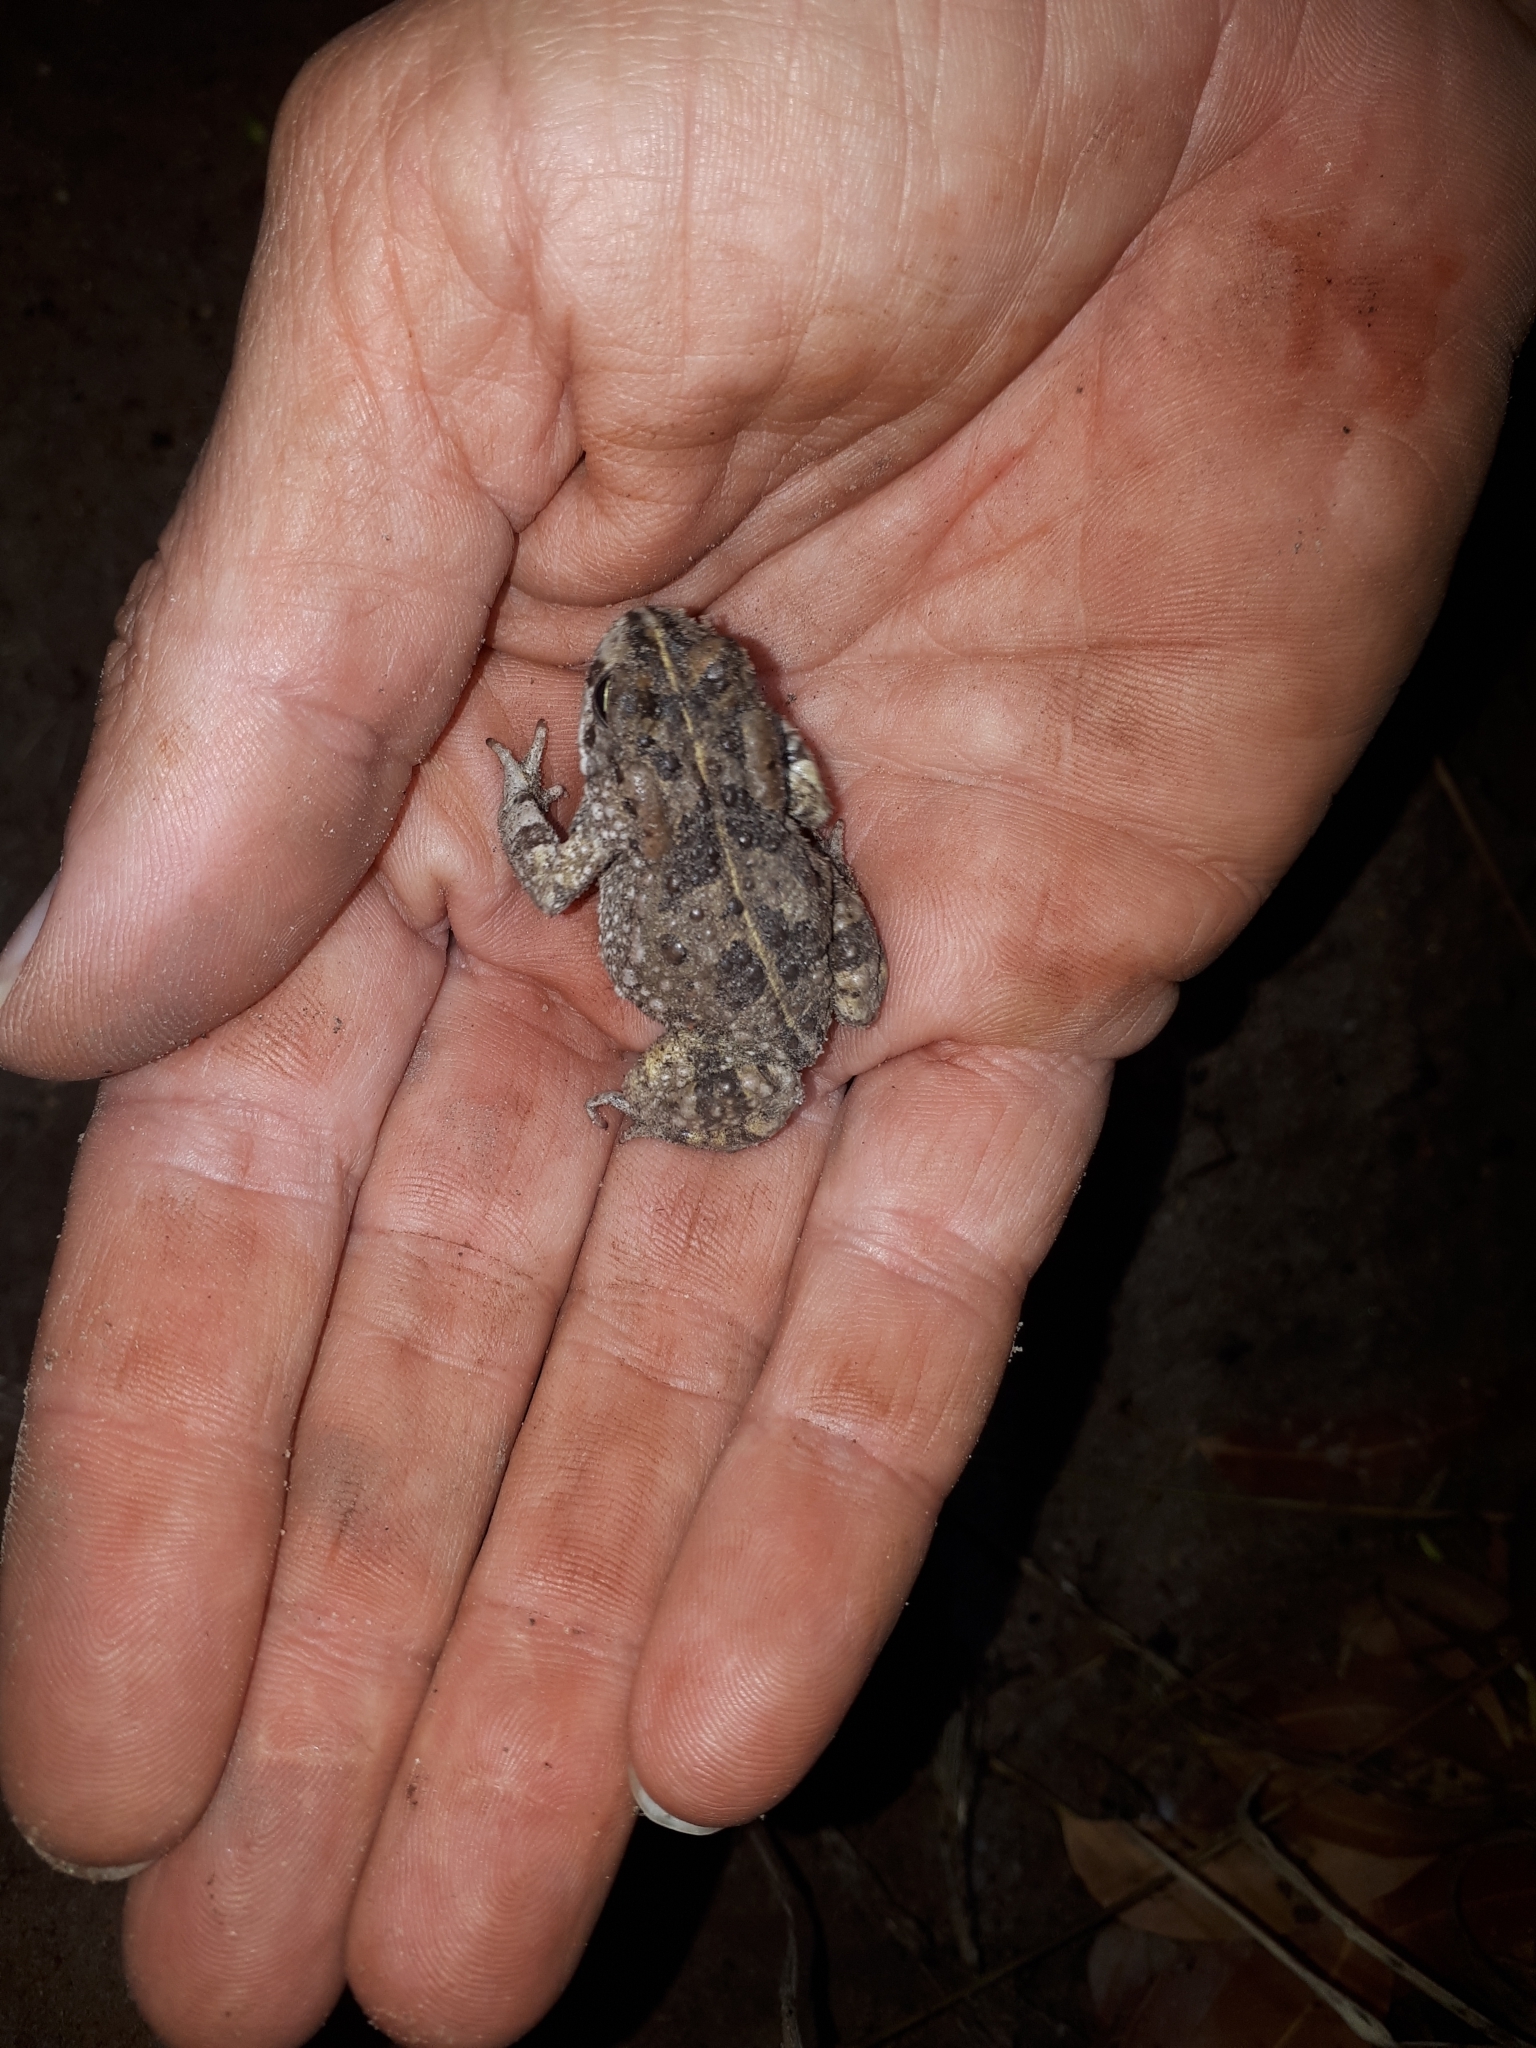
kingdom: Animalia
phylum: Chordata
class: Amphibia
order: Anura
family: Bufonidae
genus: Vandijkophrynus
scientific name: Vandijkophrynus angusticeps
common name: Sand toad
